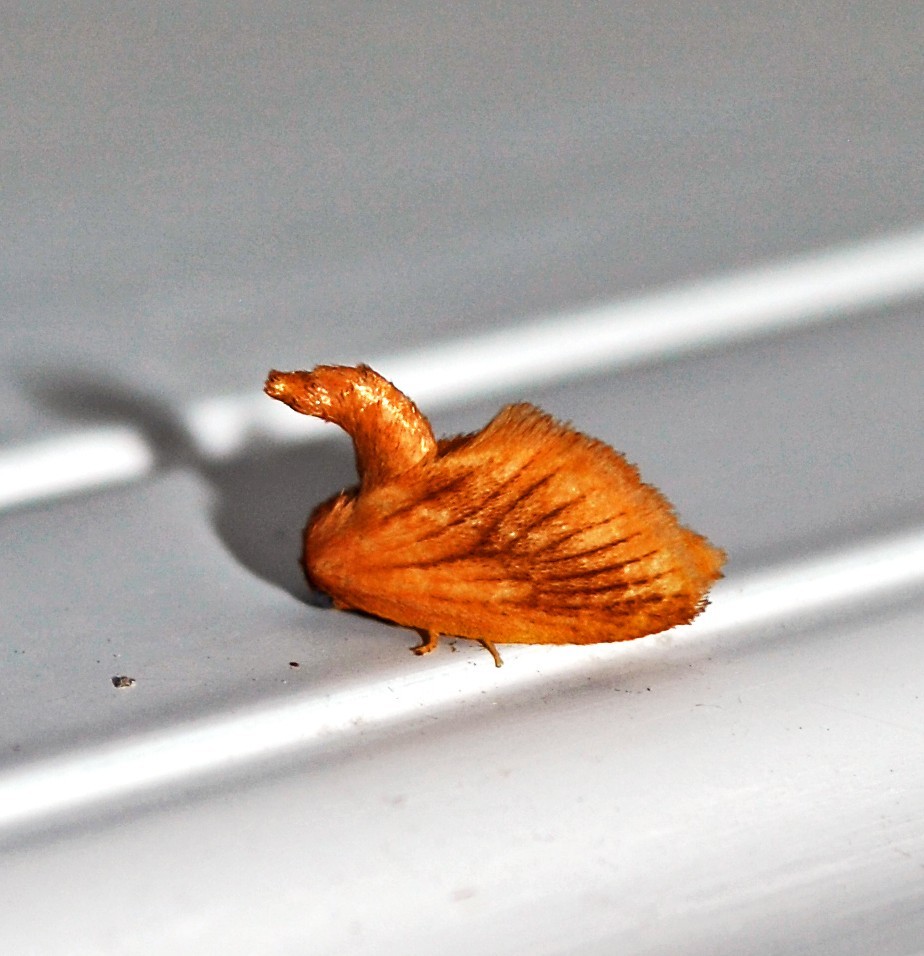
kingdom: Animalia
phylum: Arthropoda
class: Insecta
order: Lepidoptera
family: Limacodidae
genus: Tortricidia
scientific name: Tortricidia testacea
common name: Early button slug moth
